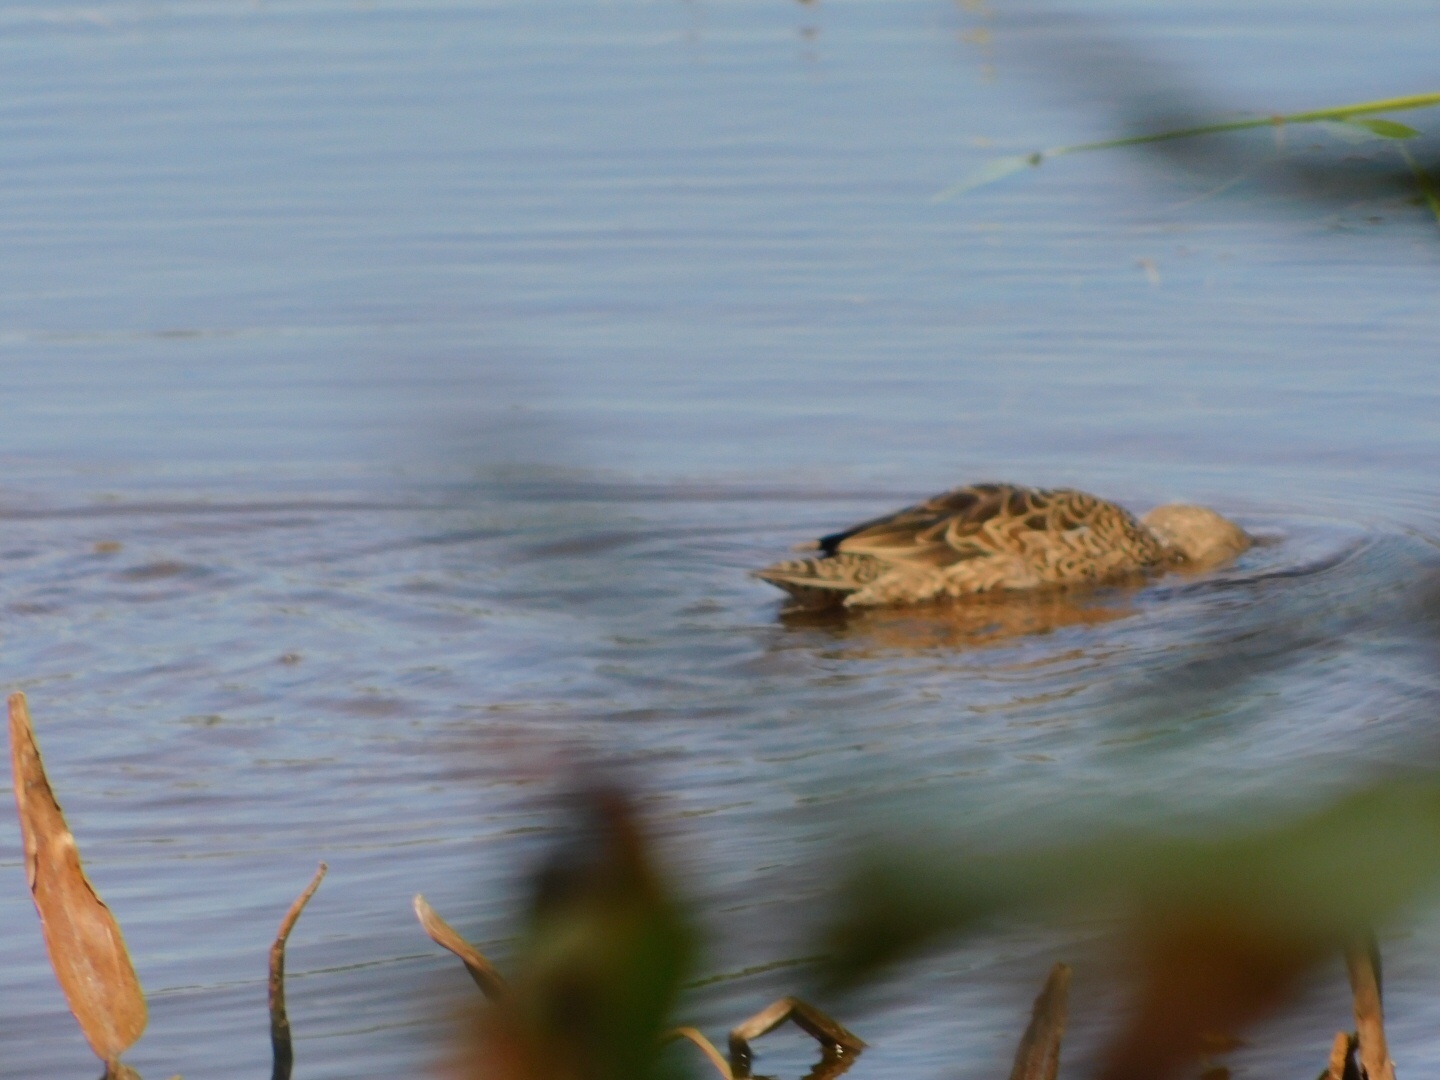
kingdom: Animalia
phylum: Chordata
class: Aves
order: Anseriformes
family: Anatidae
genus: Spatula
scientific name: Spatula discors
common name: Blue-winged teal
